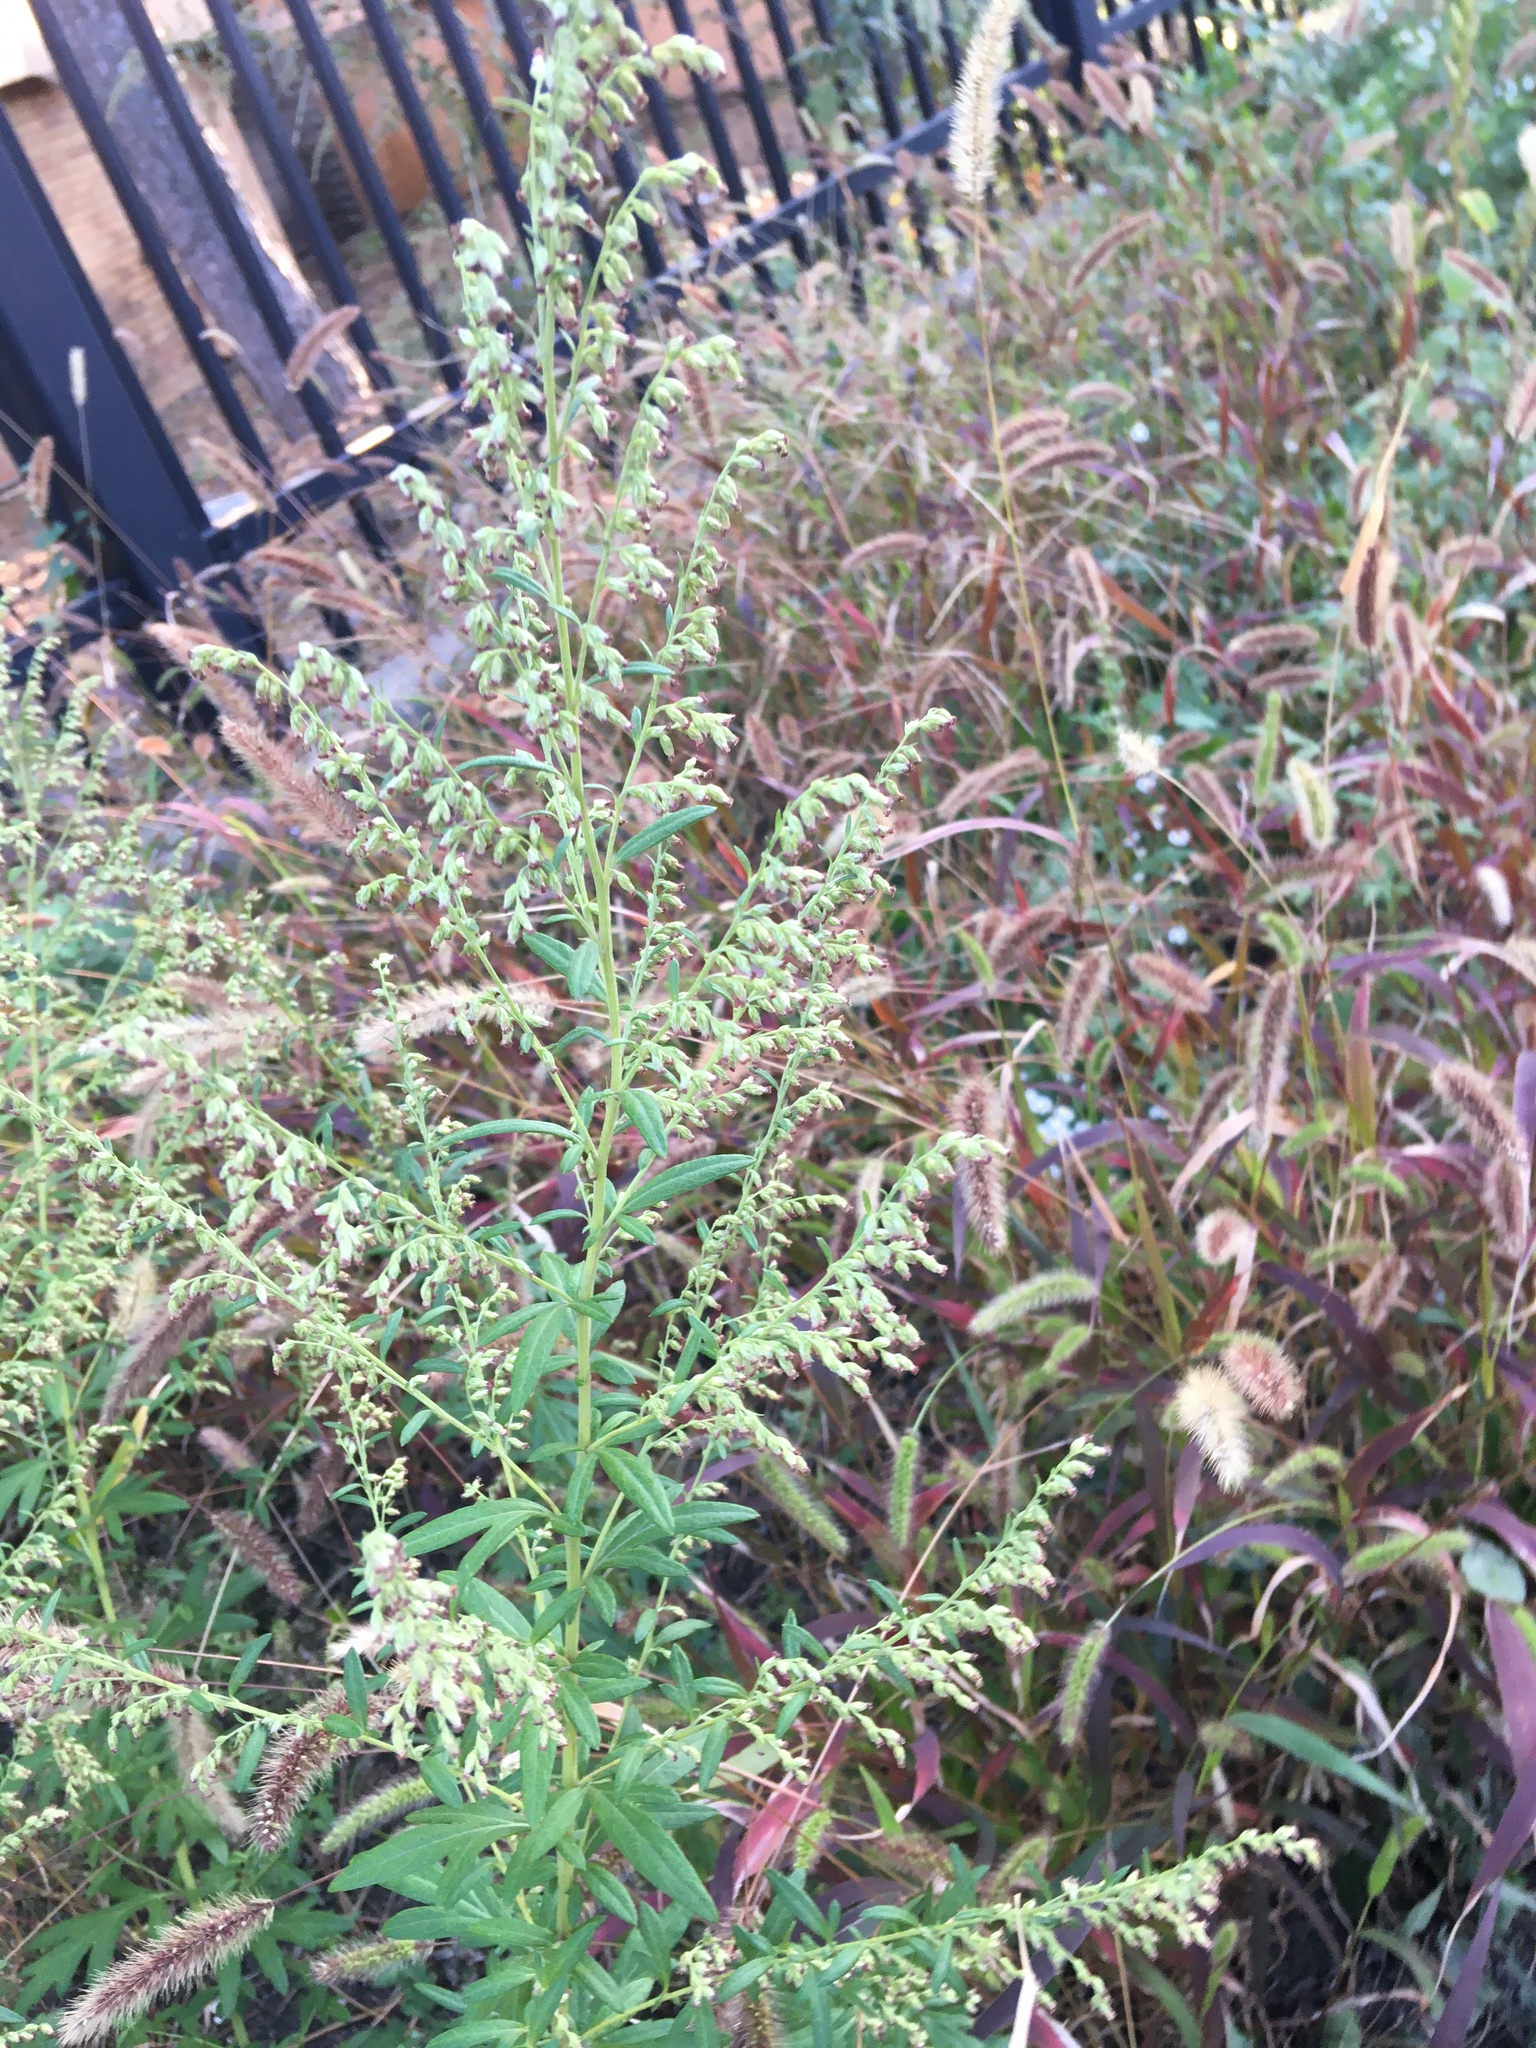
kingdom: Plantae
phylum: Tracheophyta
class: Magnoliopsida
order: Asterales
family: Asteraceae
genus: Artemisia
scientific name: Artemisia vulgaris
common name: Mugwort
